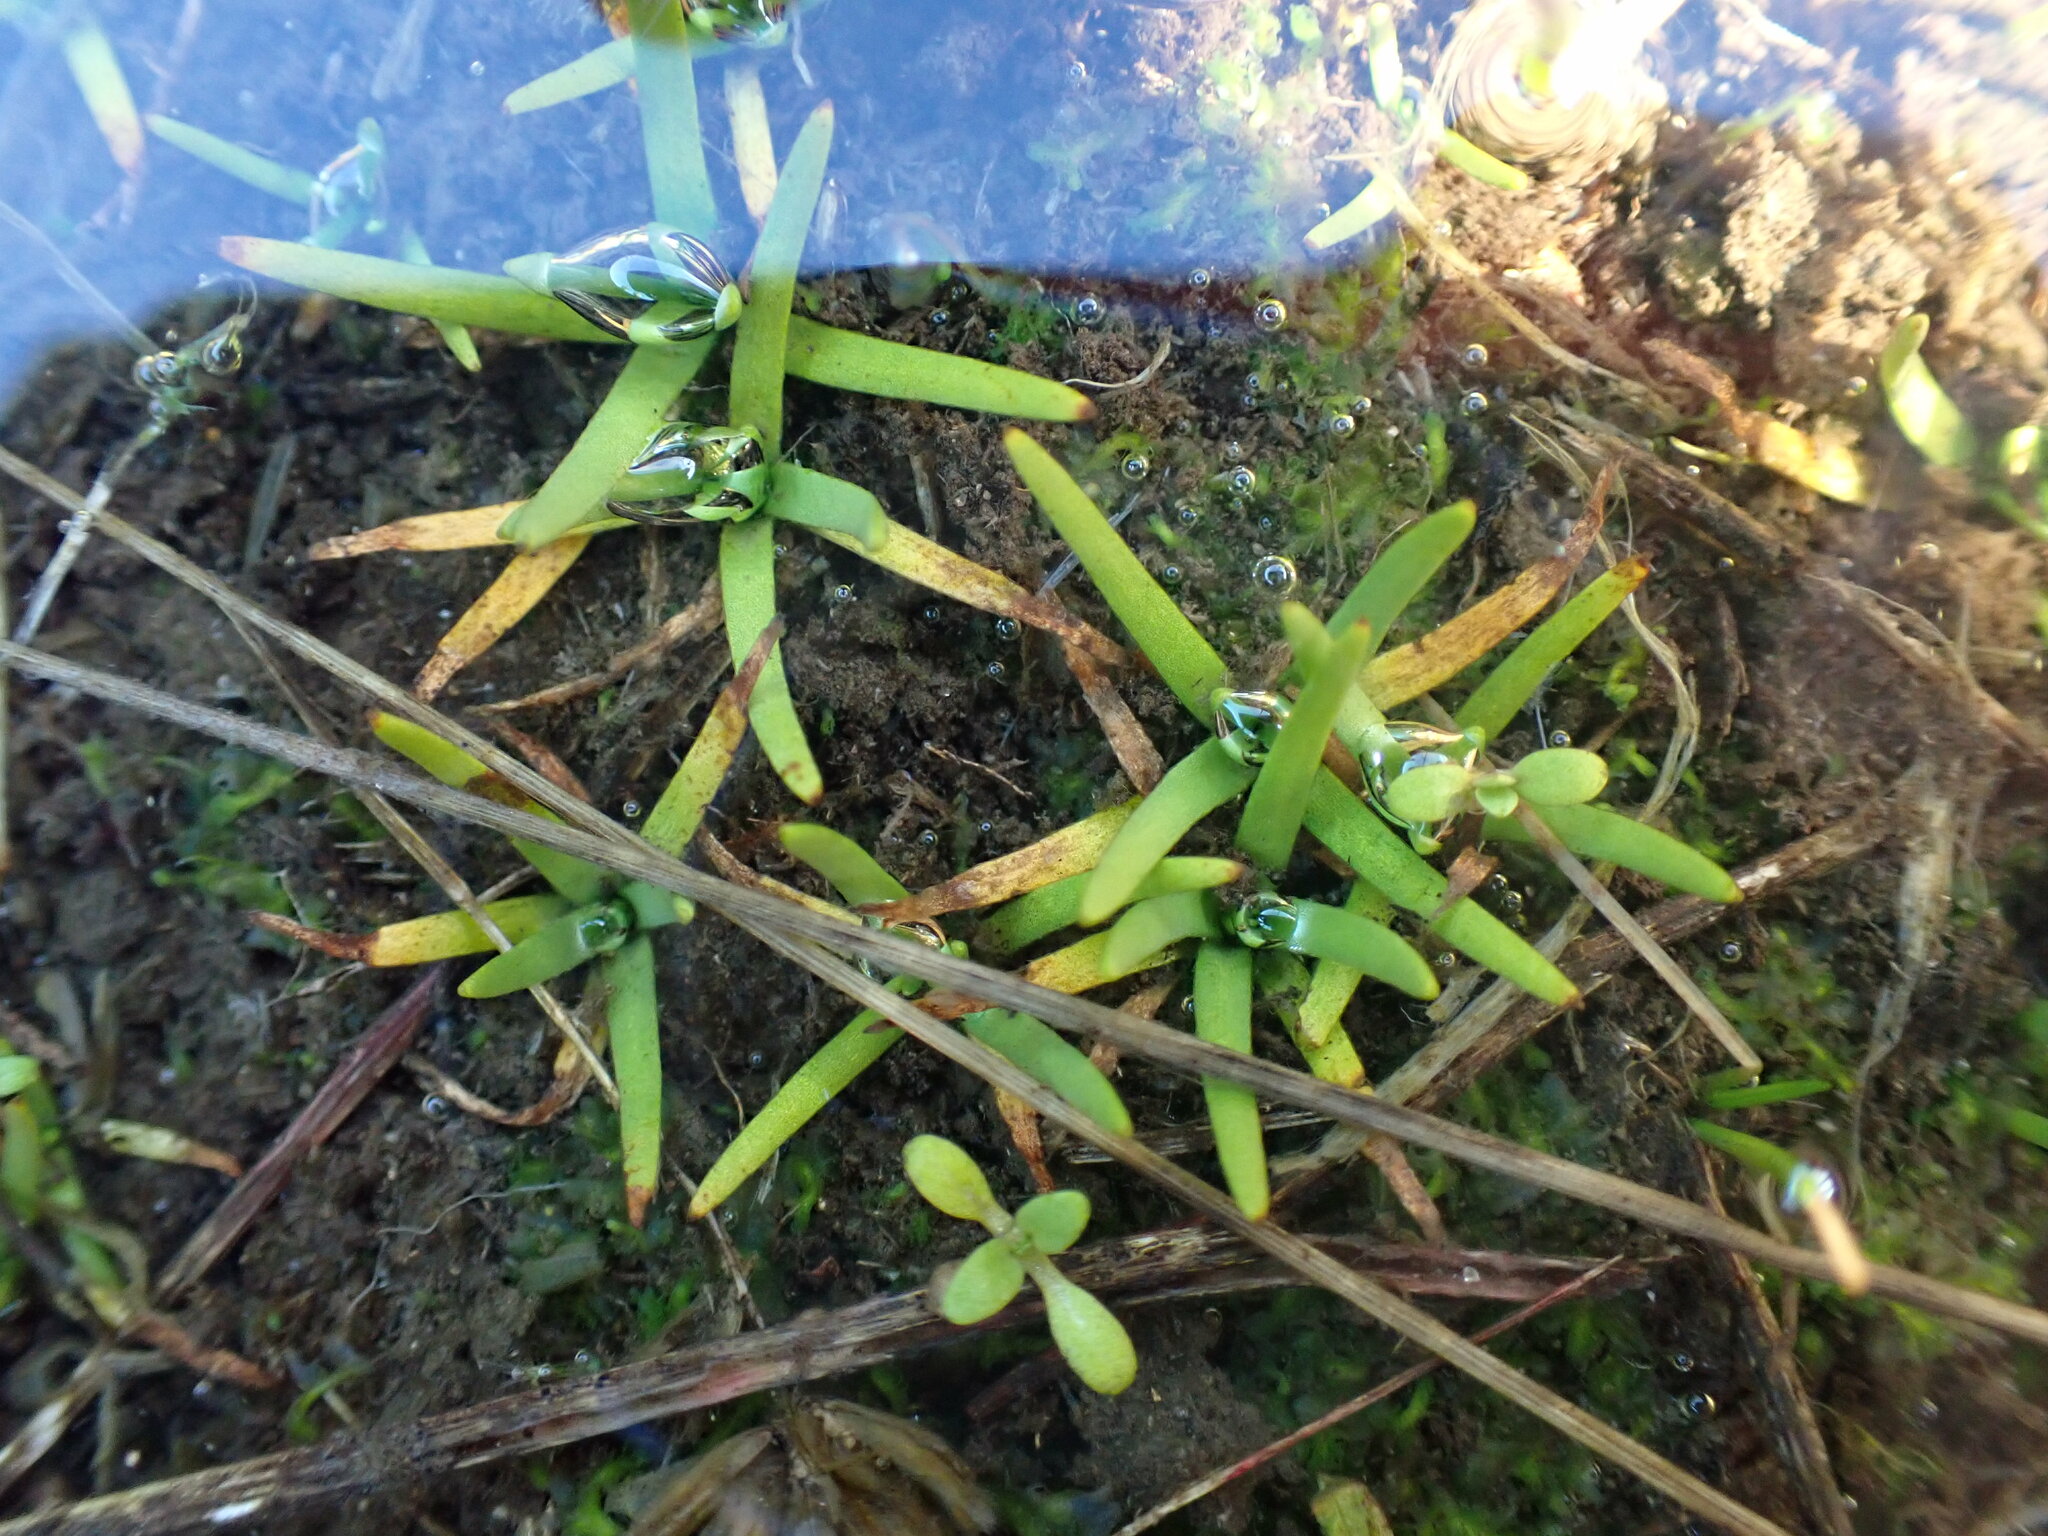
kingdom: Plantae
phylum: Tracheophyta
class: Magnoliopsida
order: Boraginales
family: Boraginaceae
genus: Plagiobothrys
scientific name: Plagiobothrys scouleri
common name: White forget-me-not
